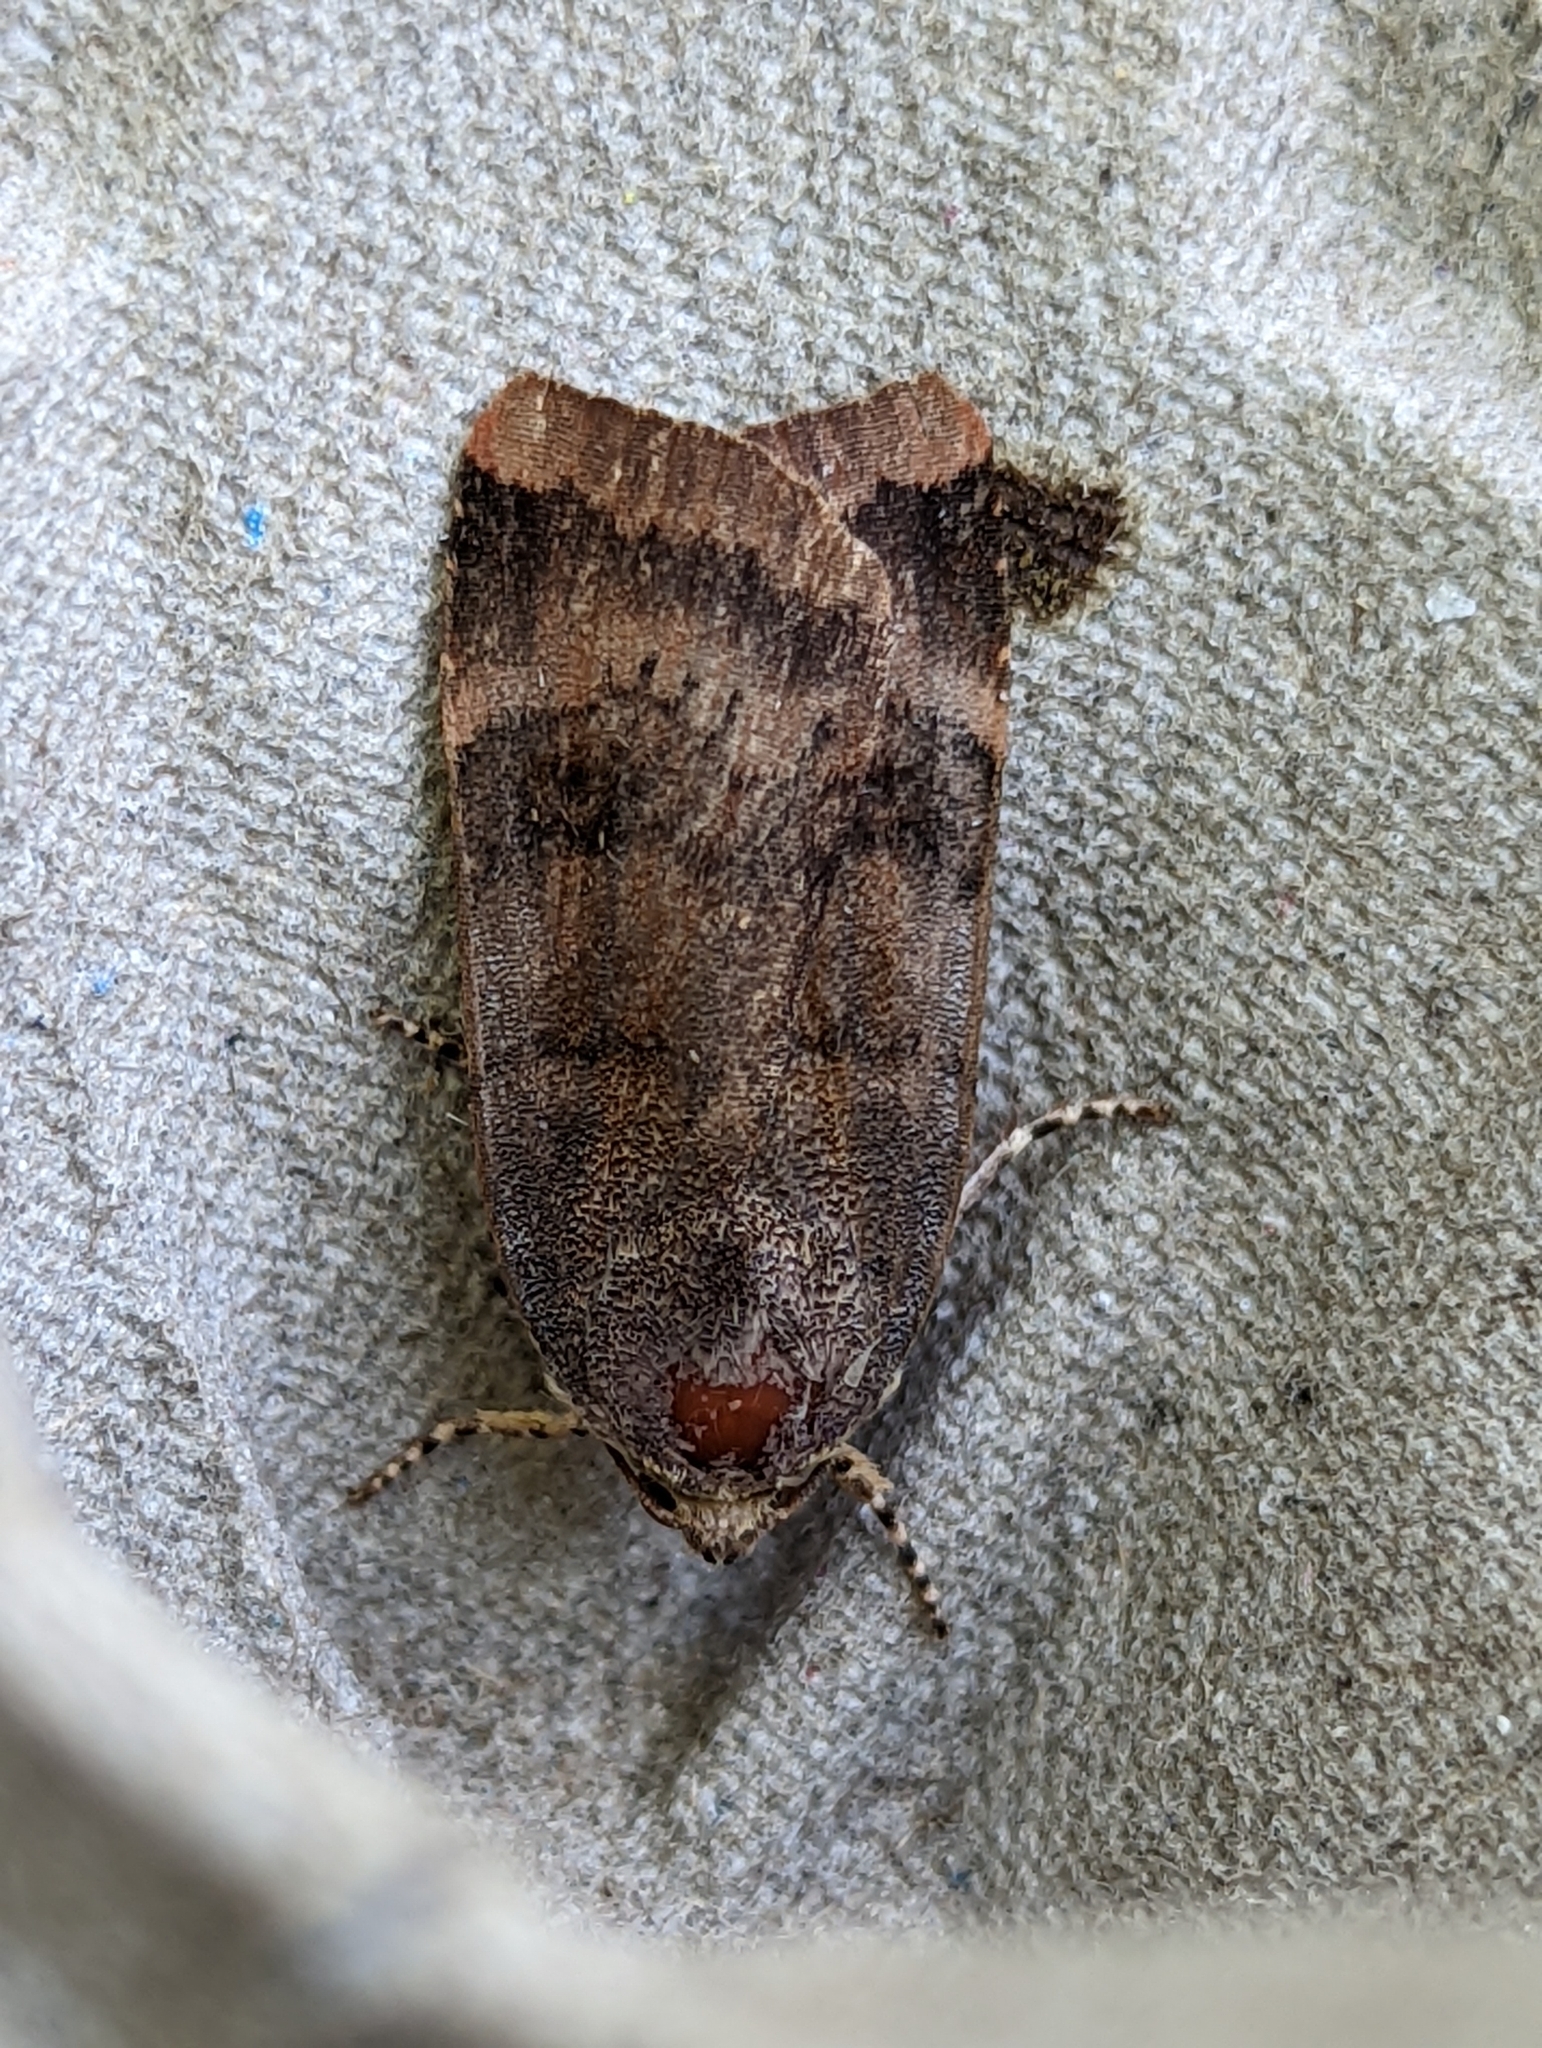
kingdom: Animalia
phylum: Arthropoda
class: Insecta
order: Lepidoptera
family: Noctuidae
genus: Noctua
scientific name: Noctua janthe
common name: Lesser broad-bordered yellow underwing
